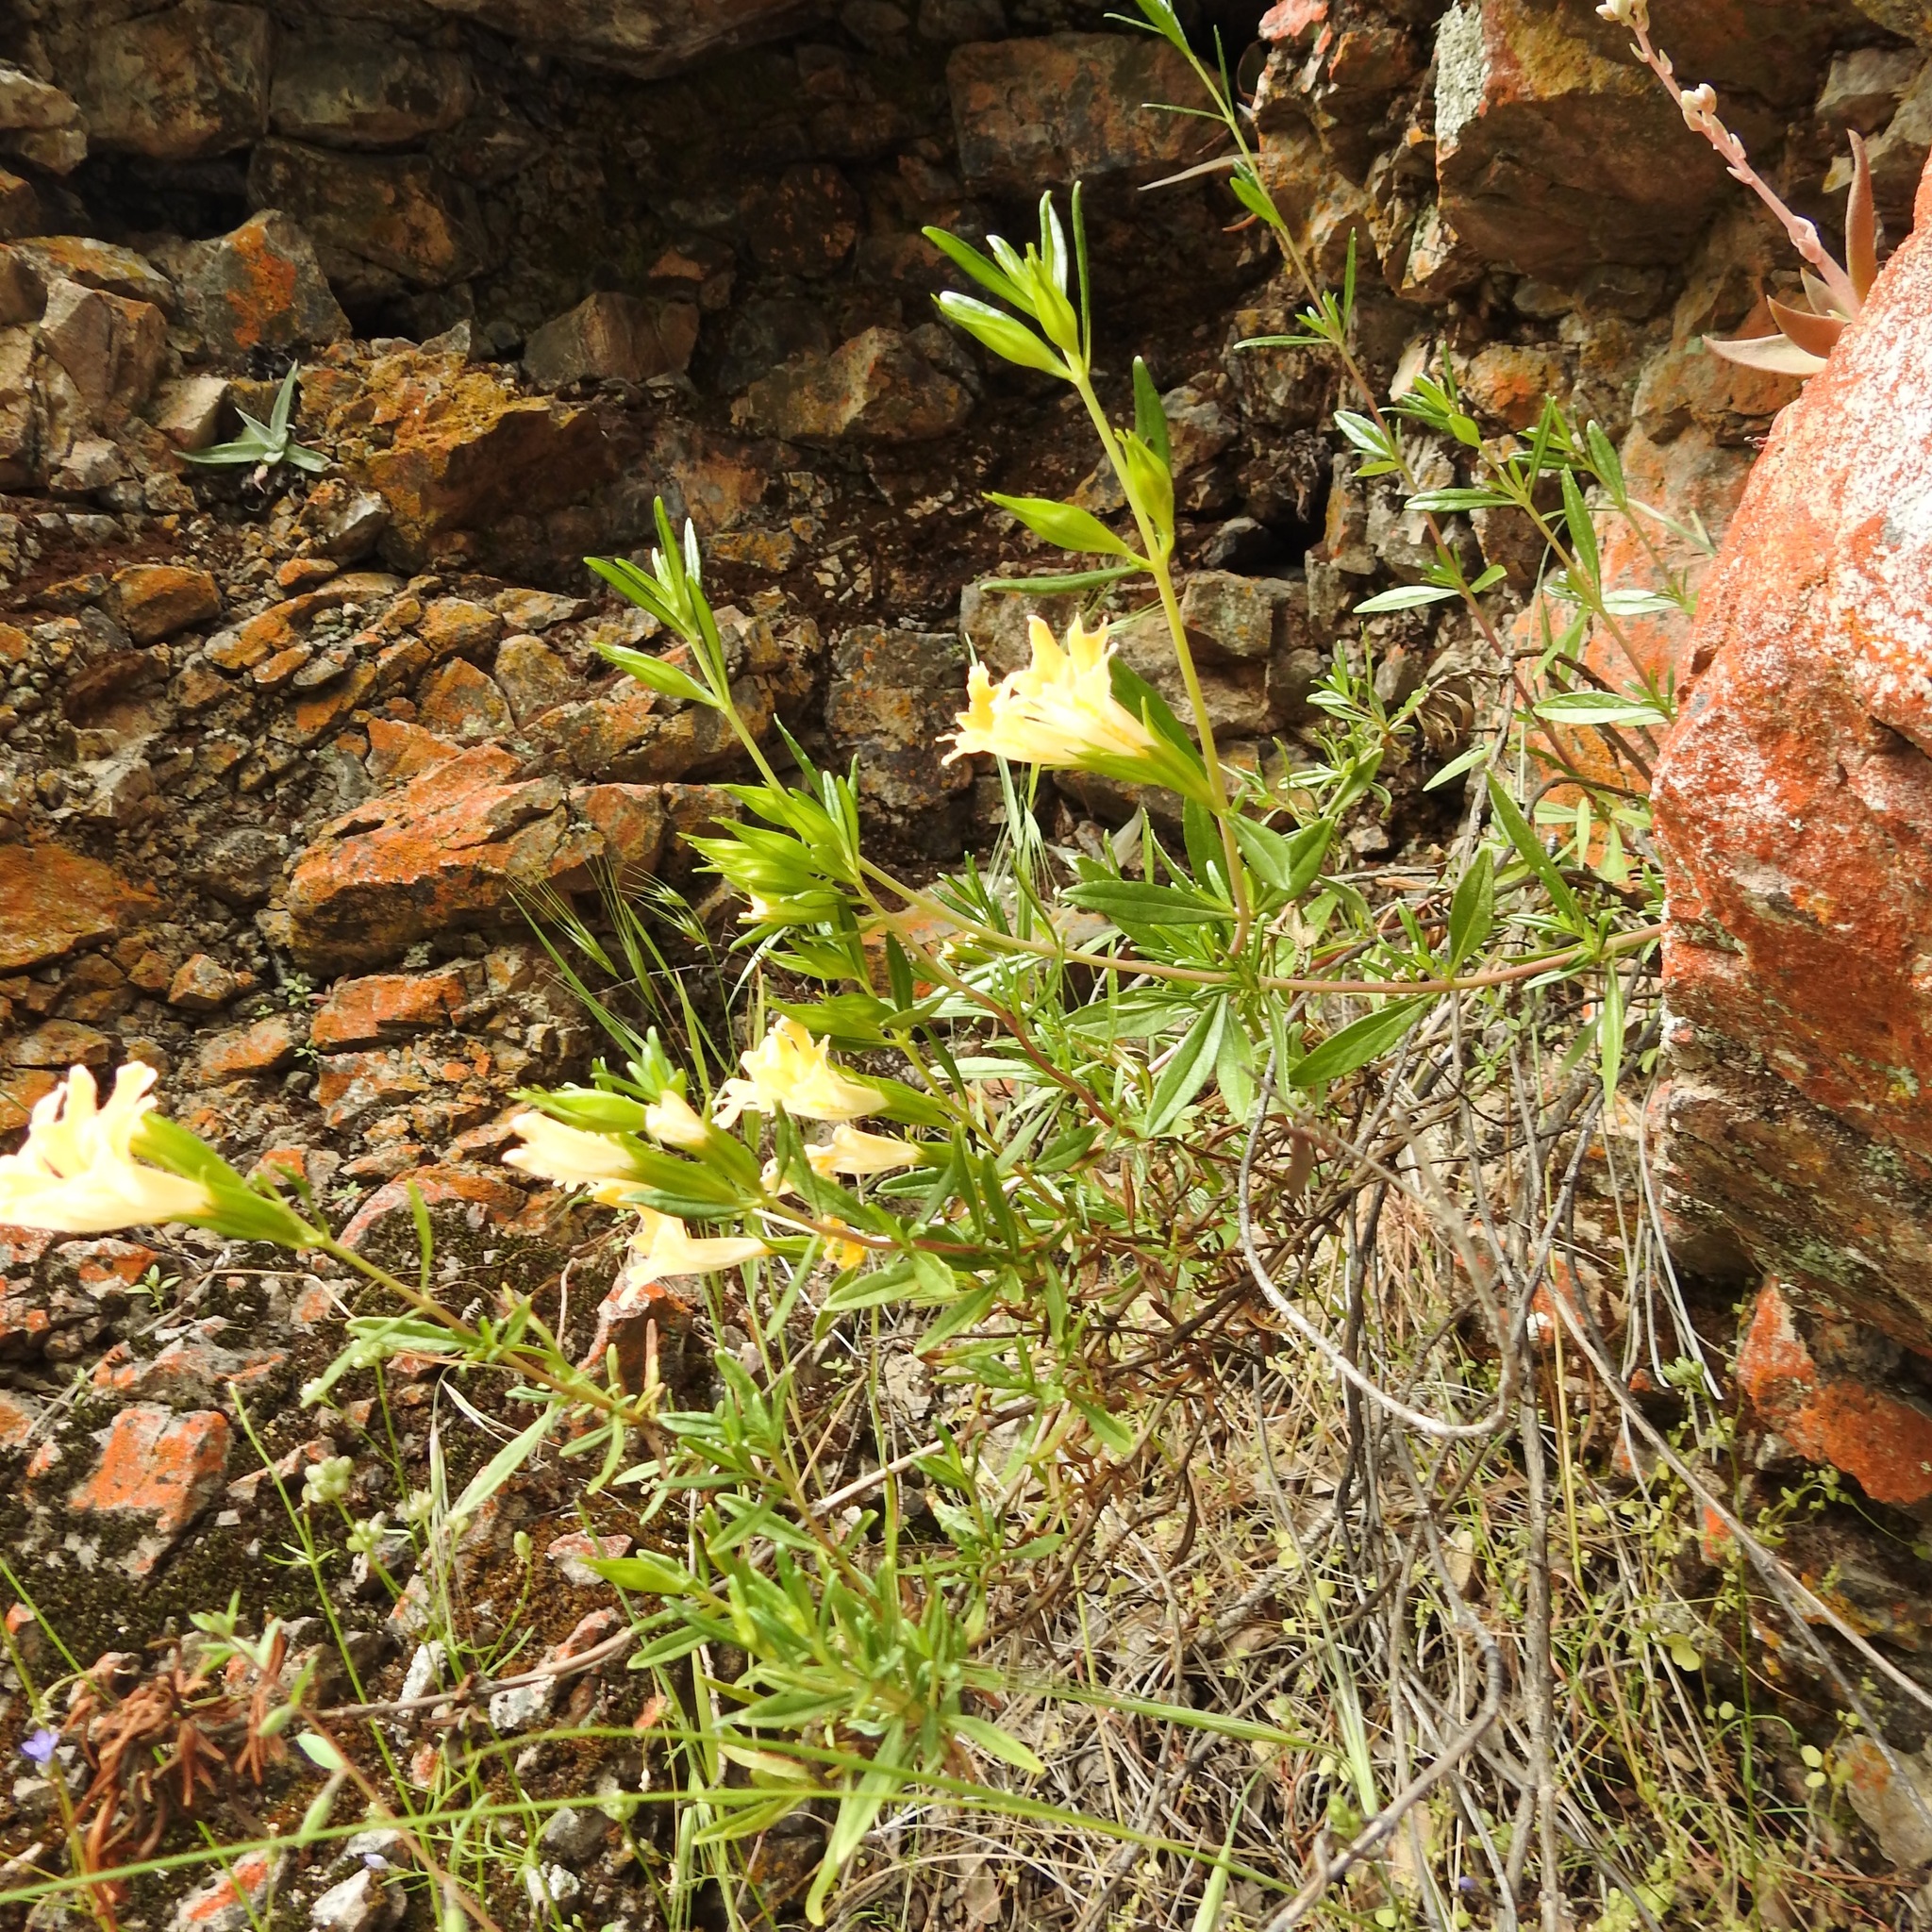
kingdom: Plantae
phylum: Tracheophyta
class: Magnoliopsida
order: Lamiales
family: Phrymaceae
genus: Diplacus
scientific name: Diplacus linearis
